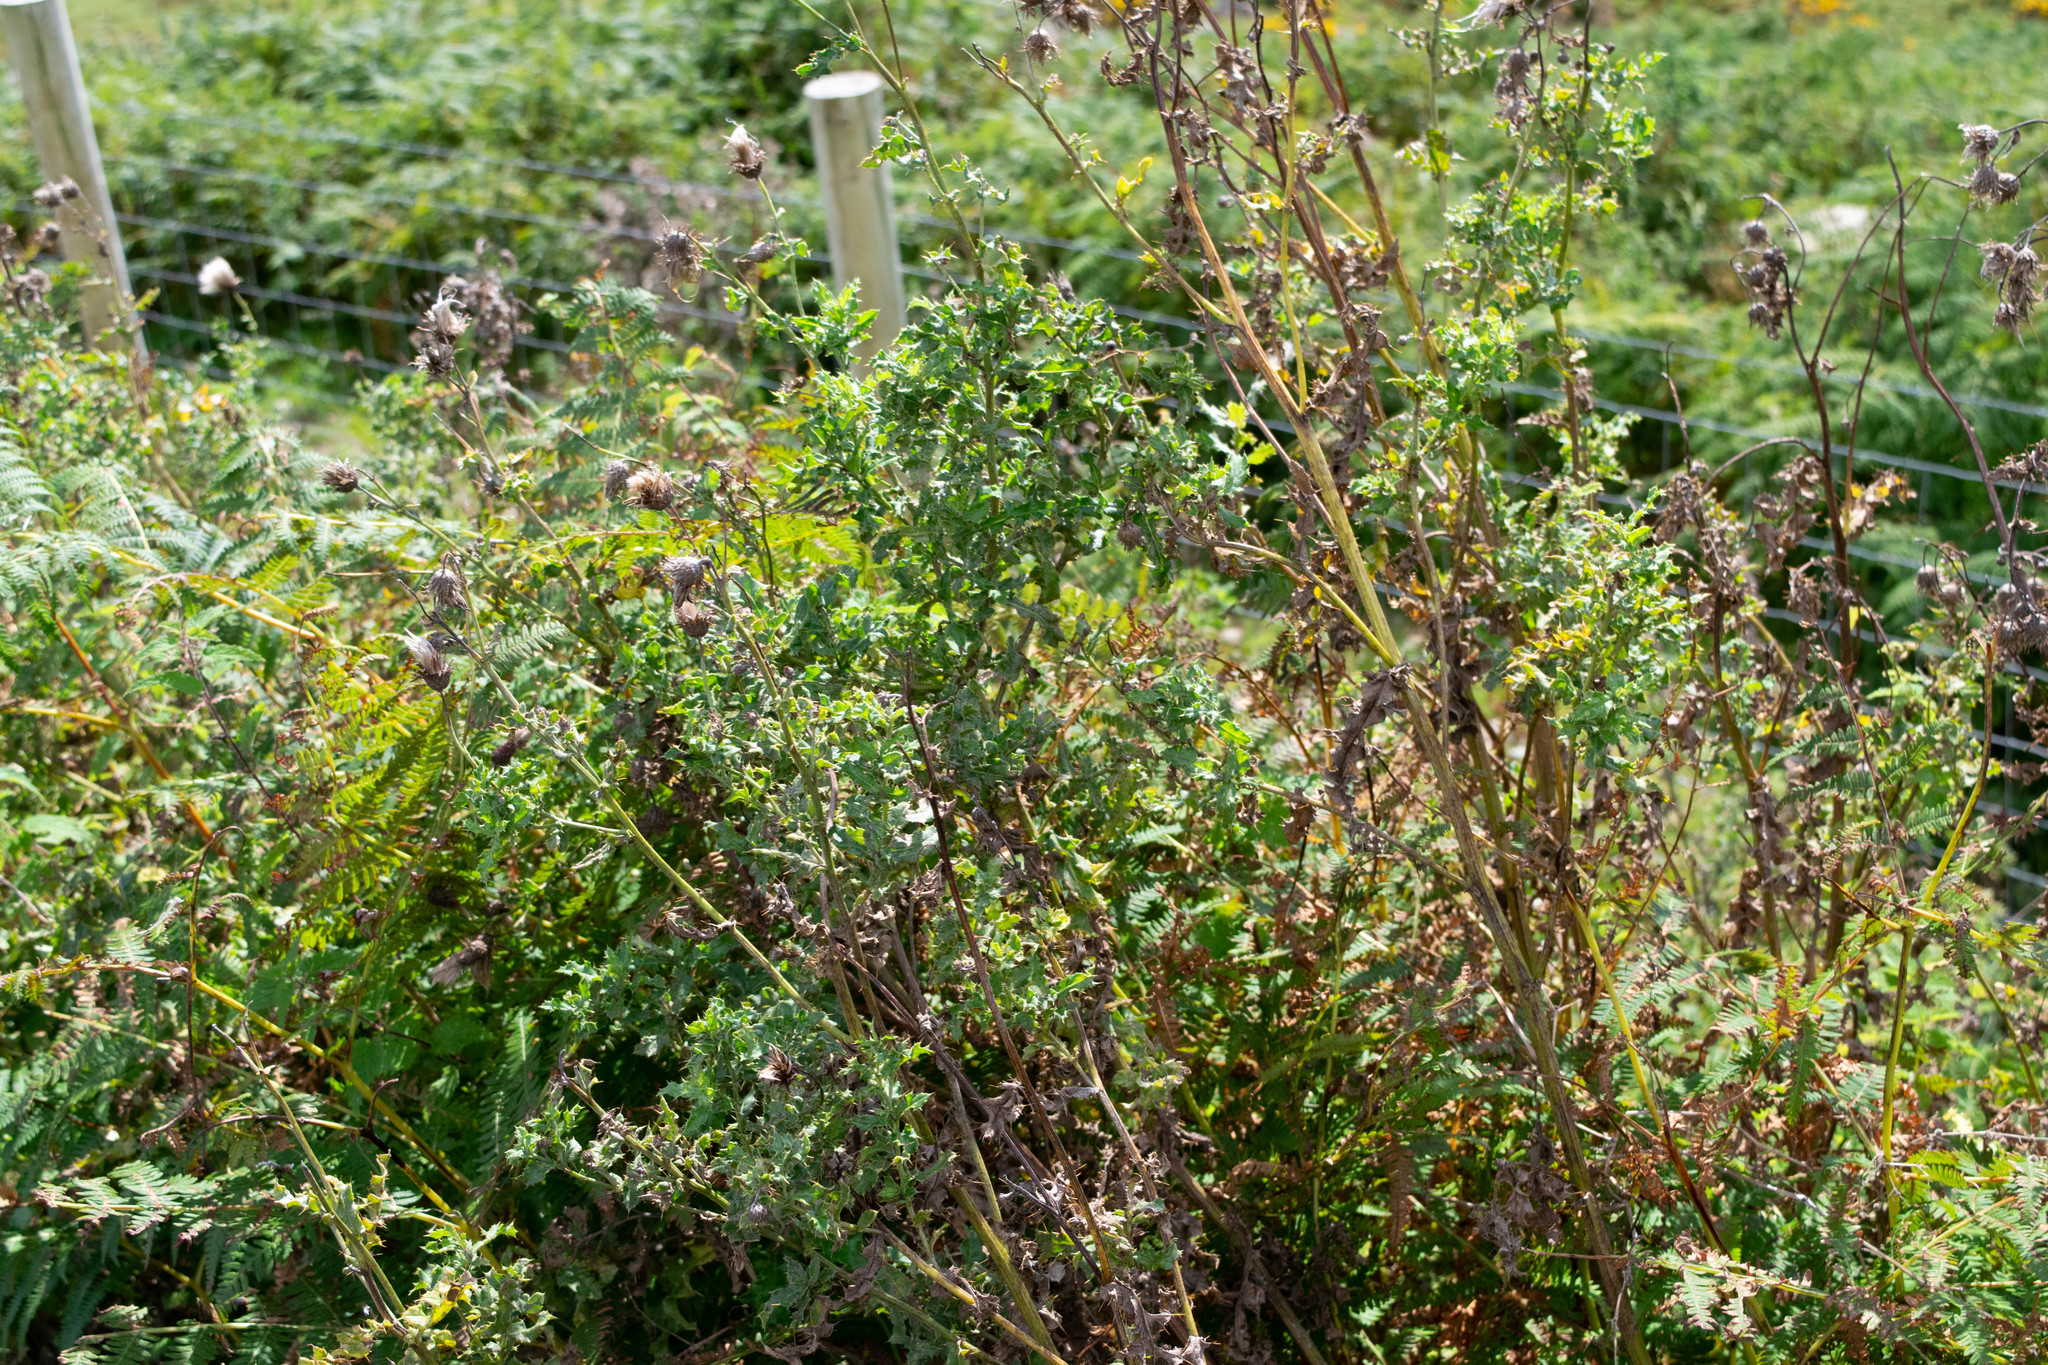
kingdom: Plantae
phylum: Tracheophyta
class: Magnoliopsida
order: Asterales
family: Asteraceae
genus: Cirsium
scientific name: Cirsium arvense
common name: Creeping thistle
